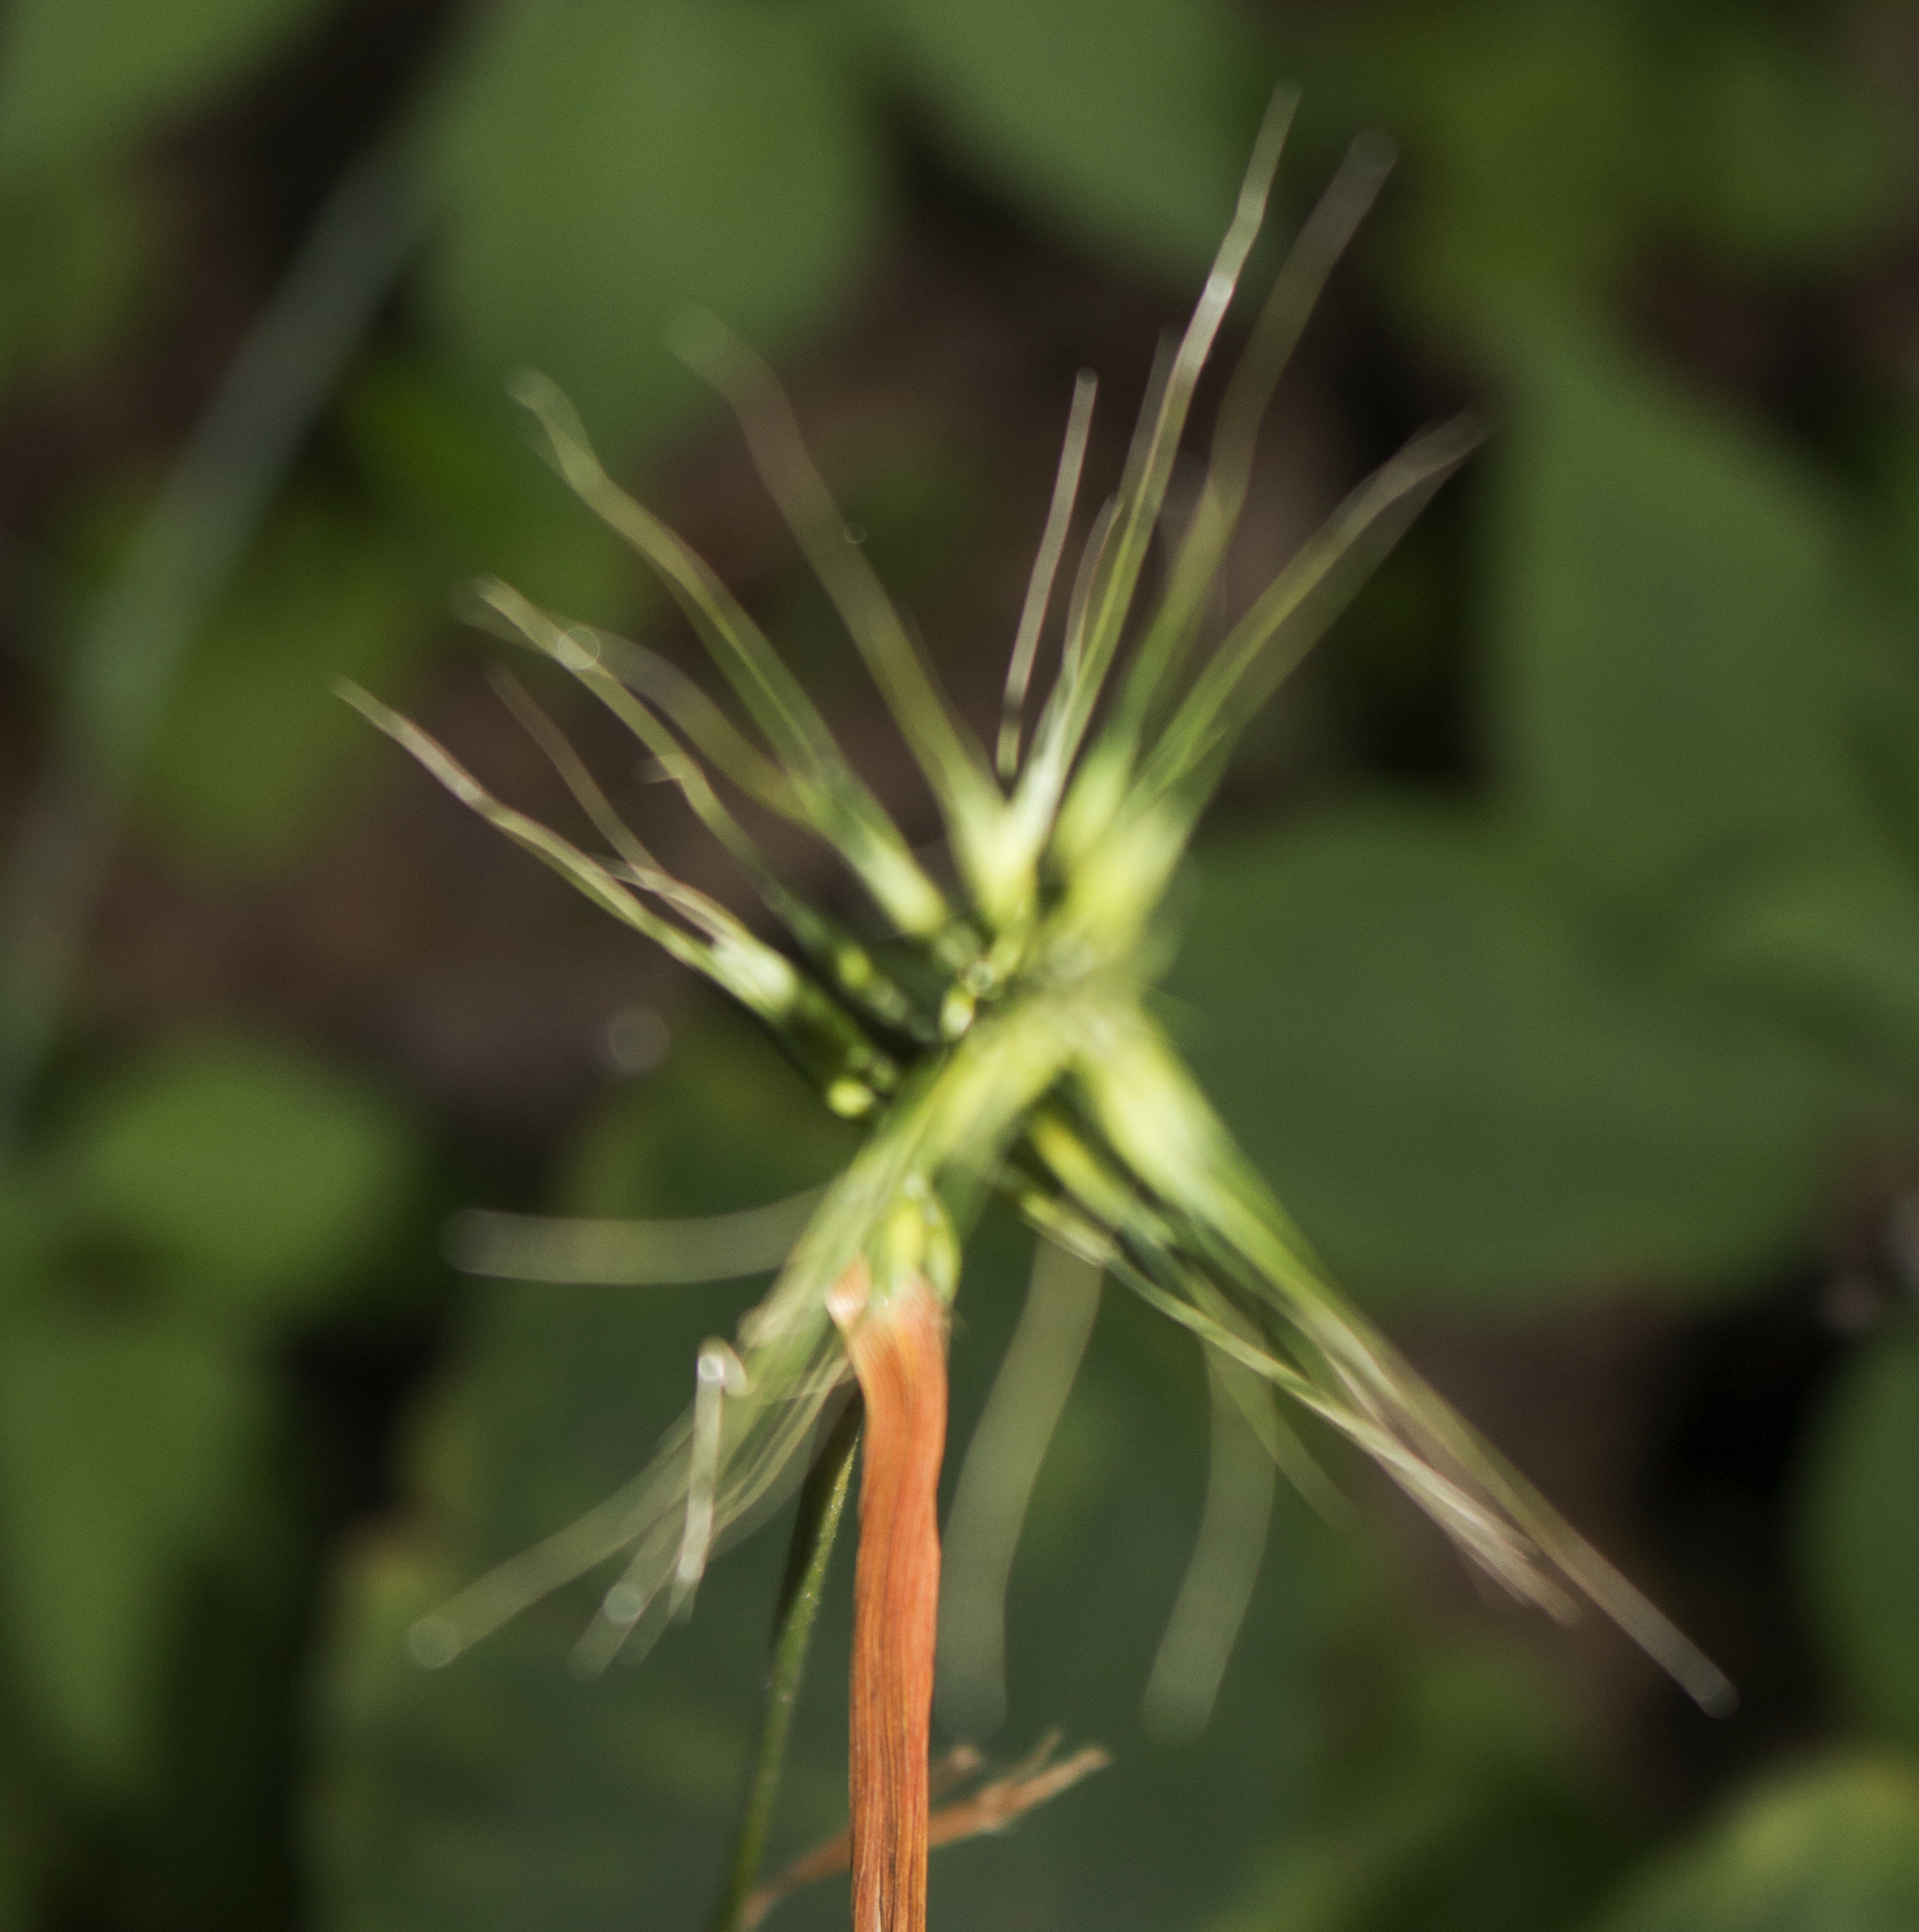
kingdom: Plantae
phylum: Tracheophyta
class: Liliopsida
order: Poales
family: Poaceae
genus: Elymus
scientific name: Elymus hystrix
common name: Bottlebrush grass
